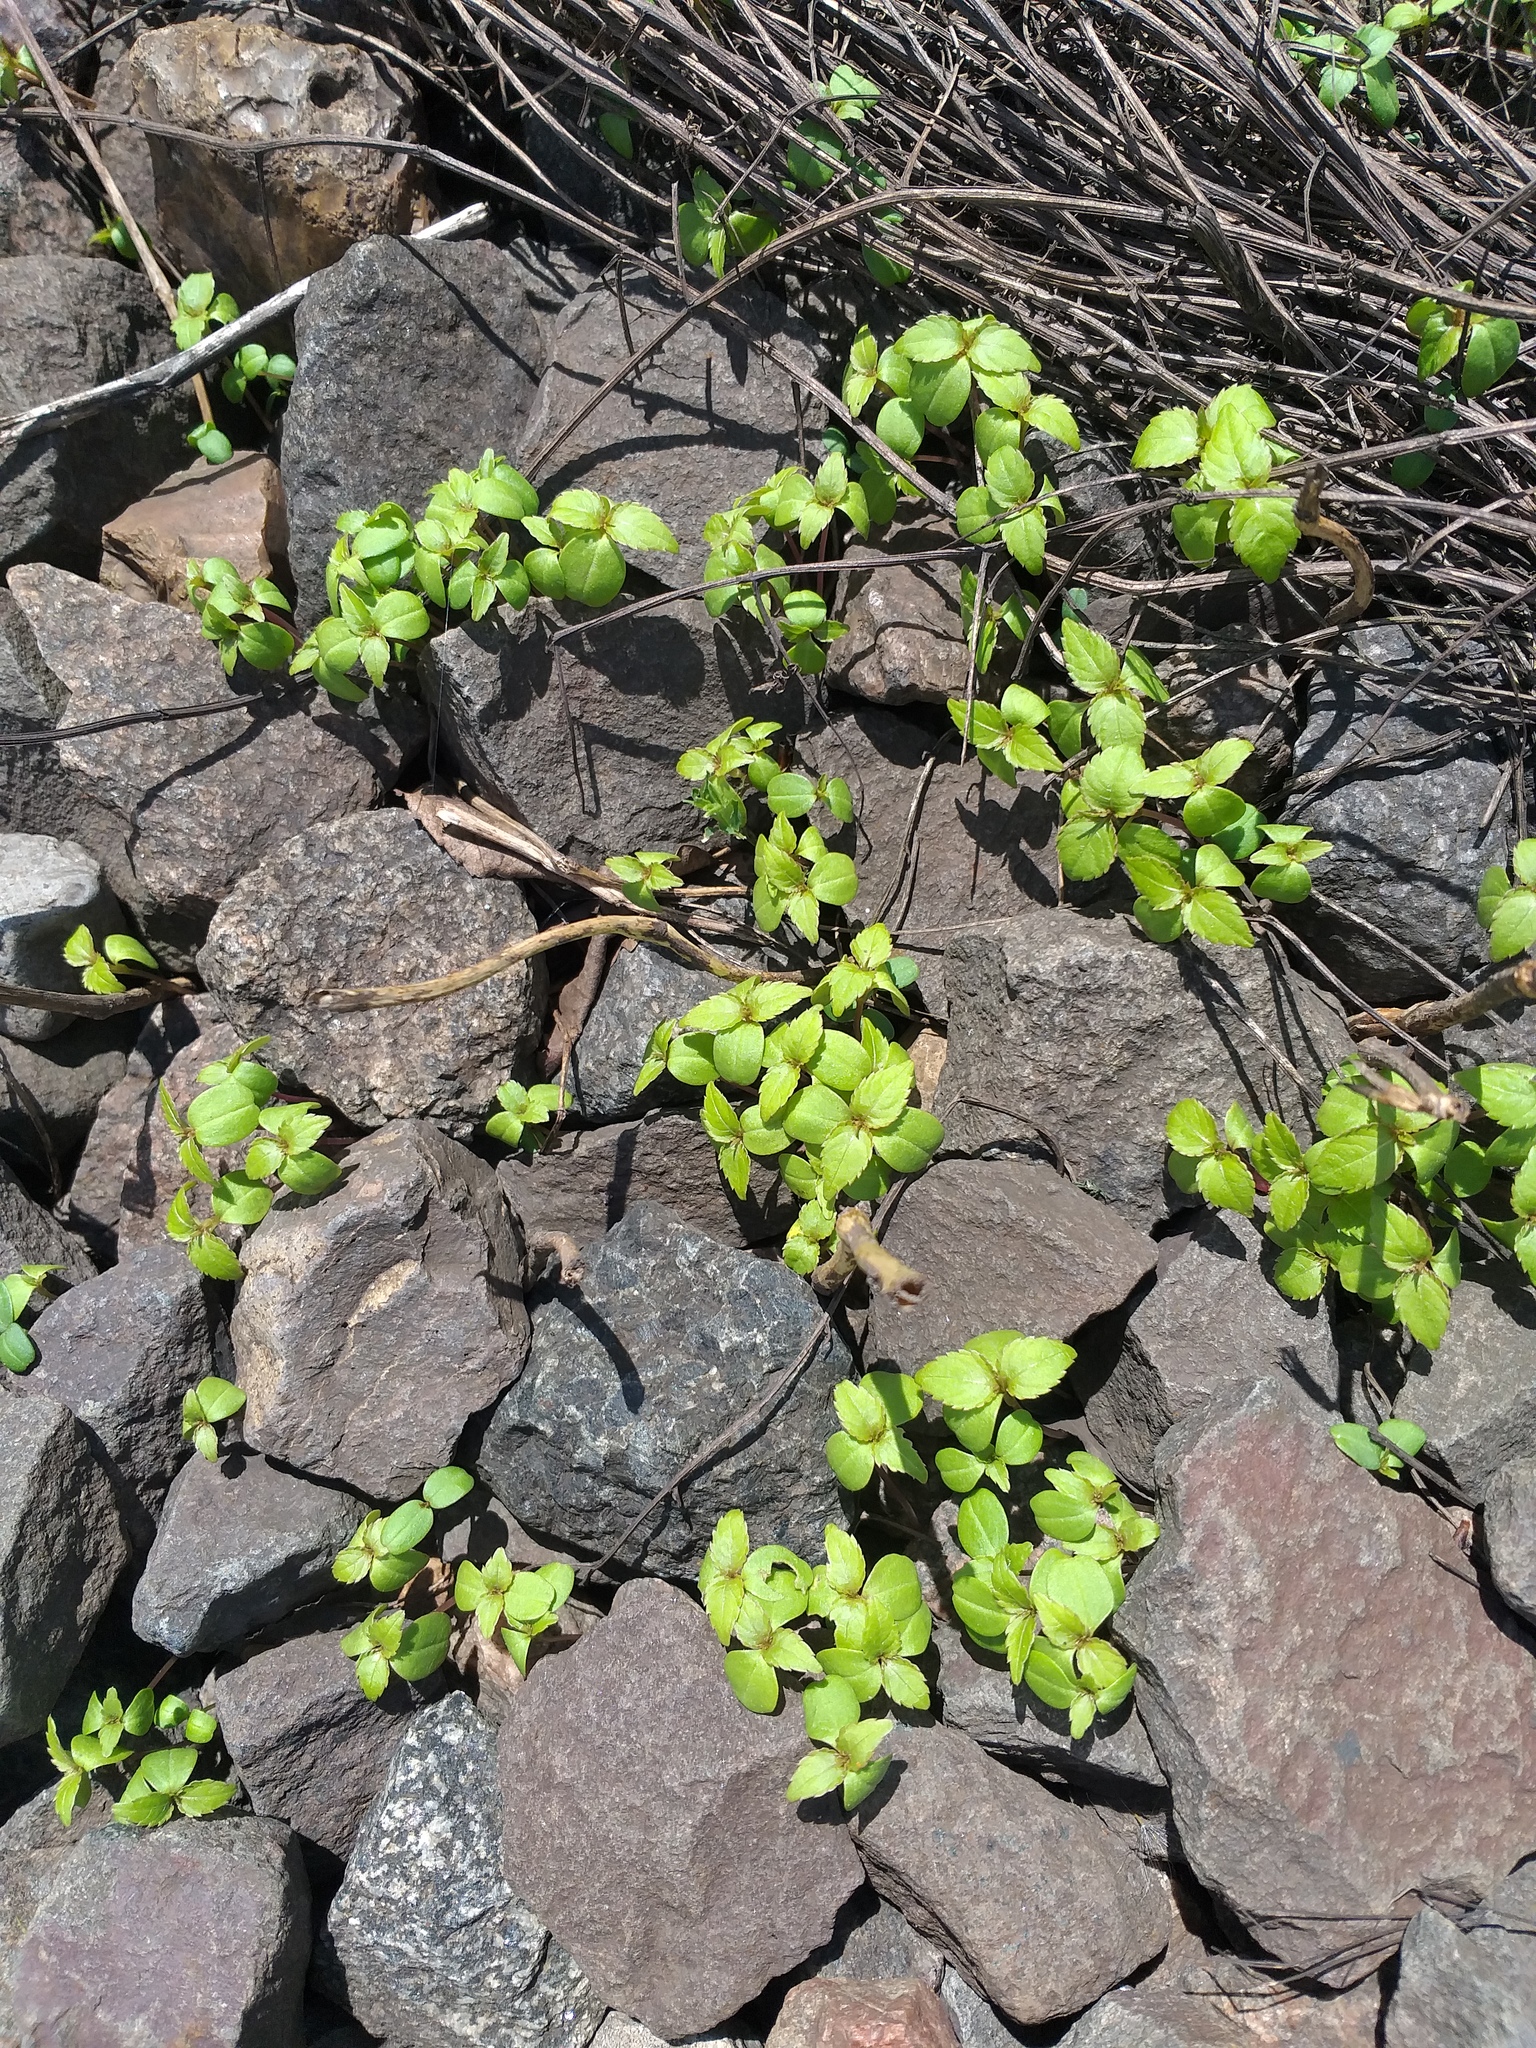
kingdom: Plantae
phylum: Tracheophyta
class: Magnoliopsida
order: Ericales
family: Balsaminaceae
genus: Impatiens
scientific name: Impatiens parviflora
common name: Small balsam
